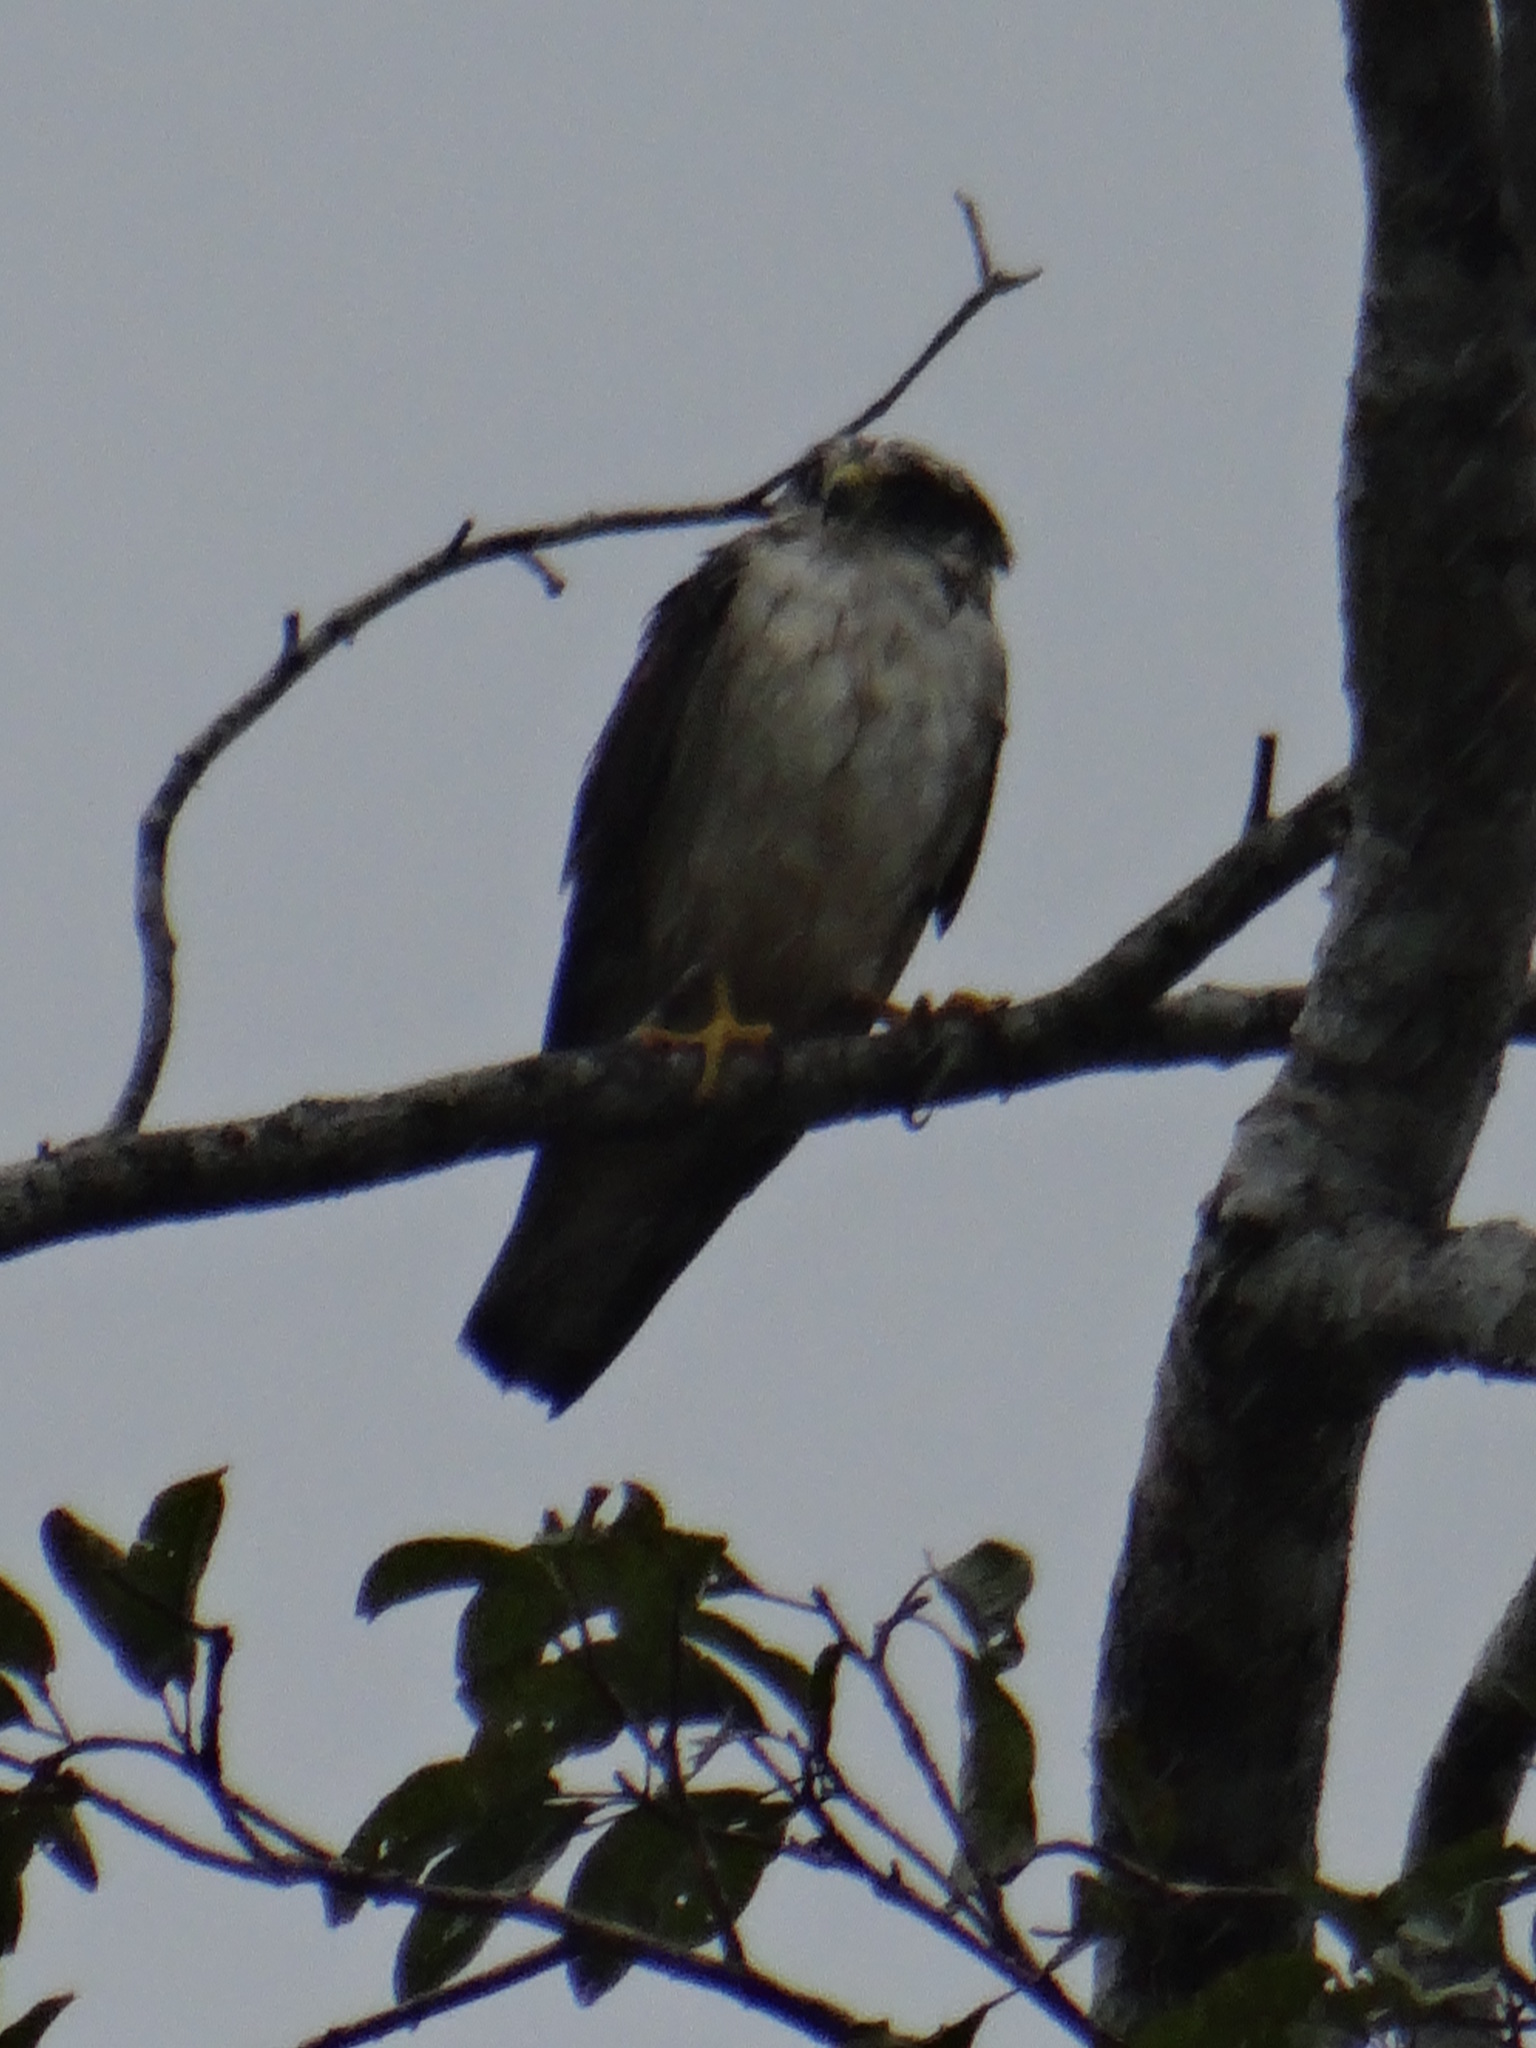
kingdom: Animalia
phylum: Chordata
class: Aves
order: Accipitriformes
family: Accipitridae
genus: Buteo
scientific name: Buteo brachyurus
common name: Short-tailed hawk
